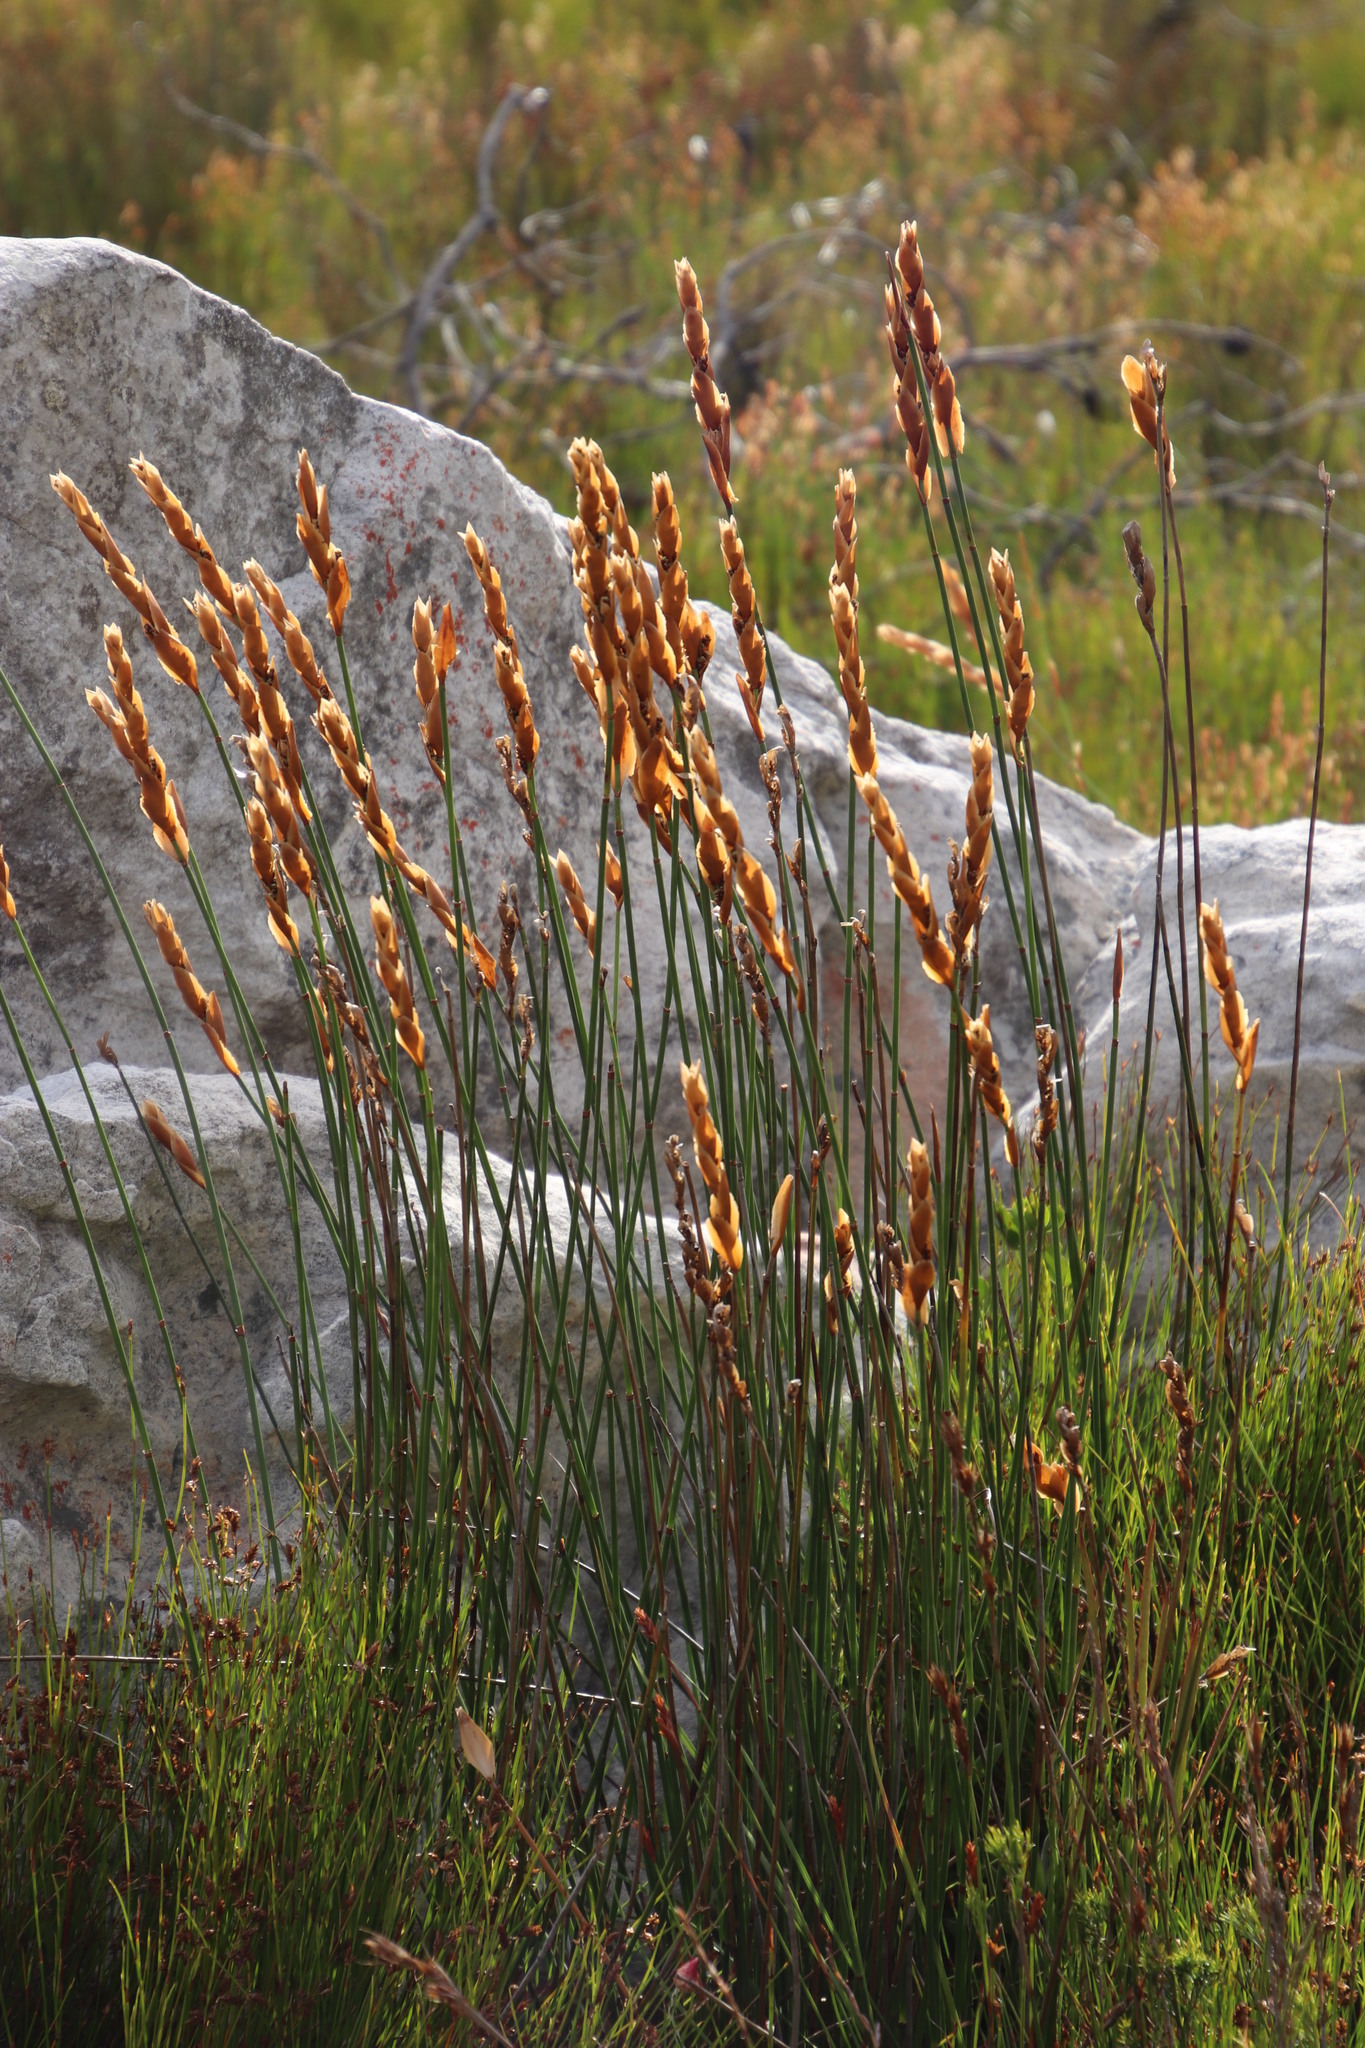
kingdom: Plantae
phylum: Tracheophyta
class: Liliopsida
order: Poales
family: Restionaceae
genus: Elegia
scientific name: Elegia racemosa
